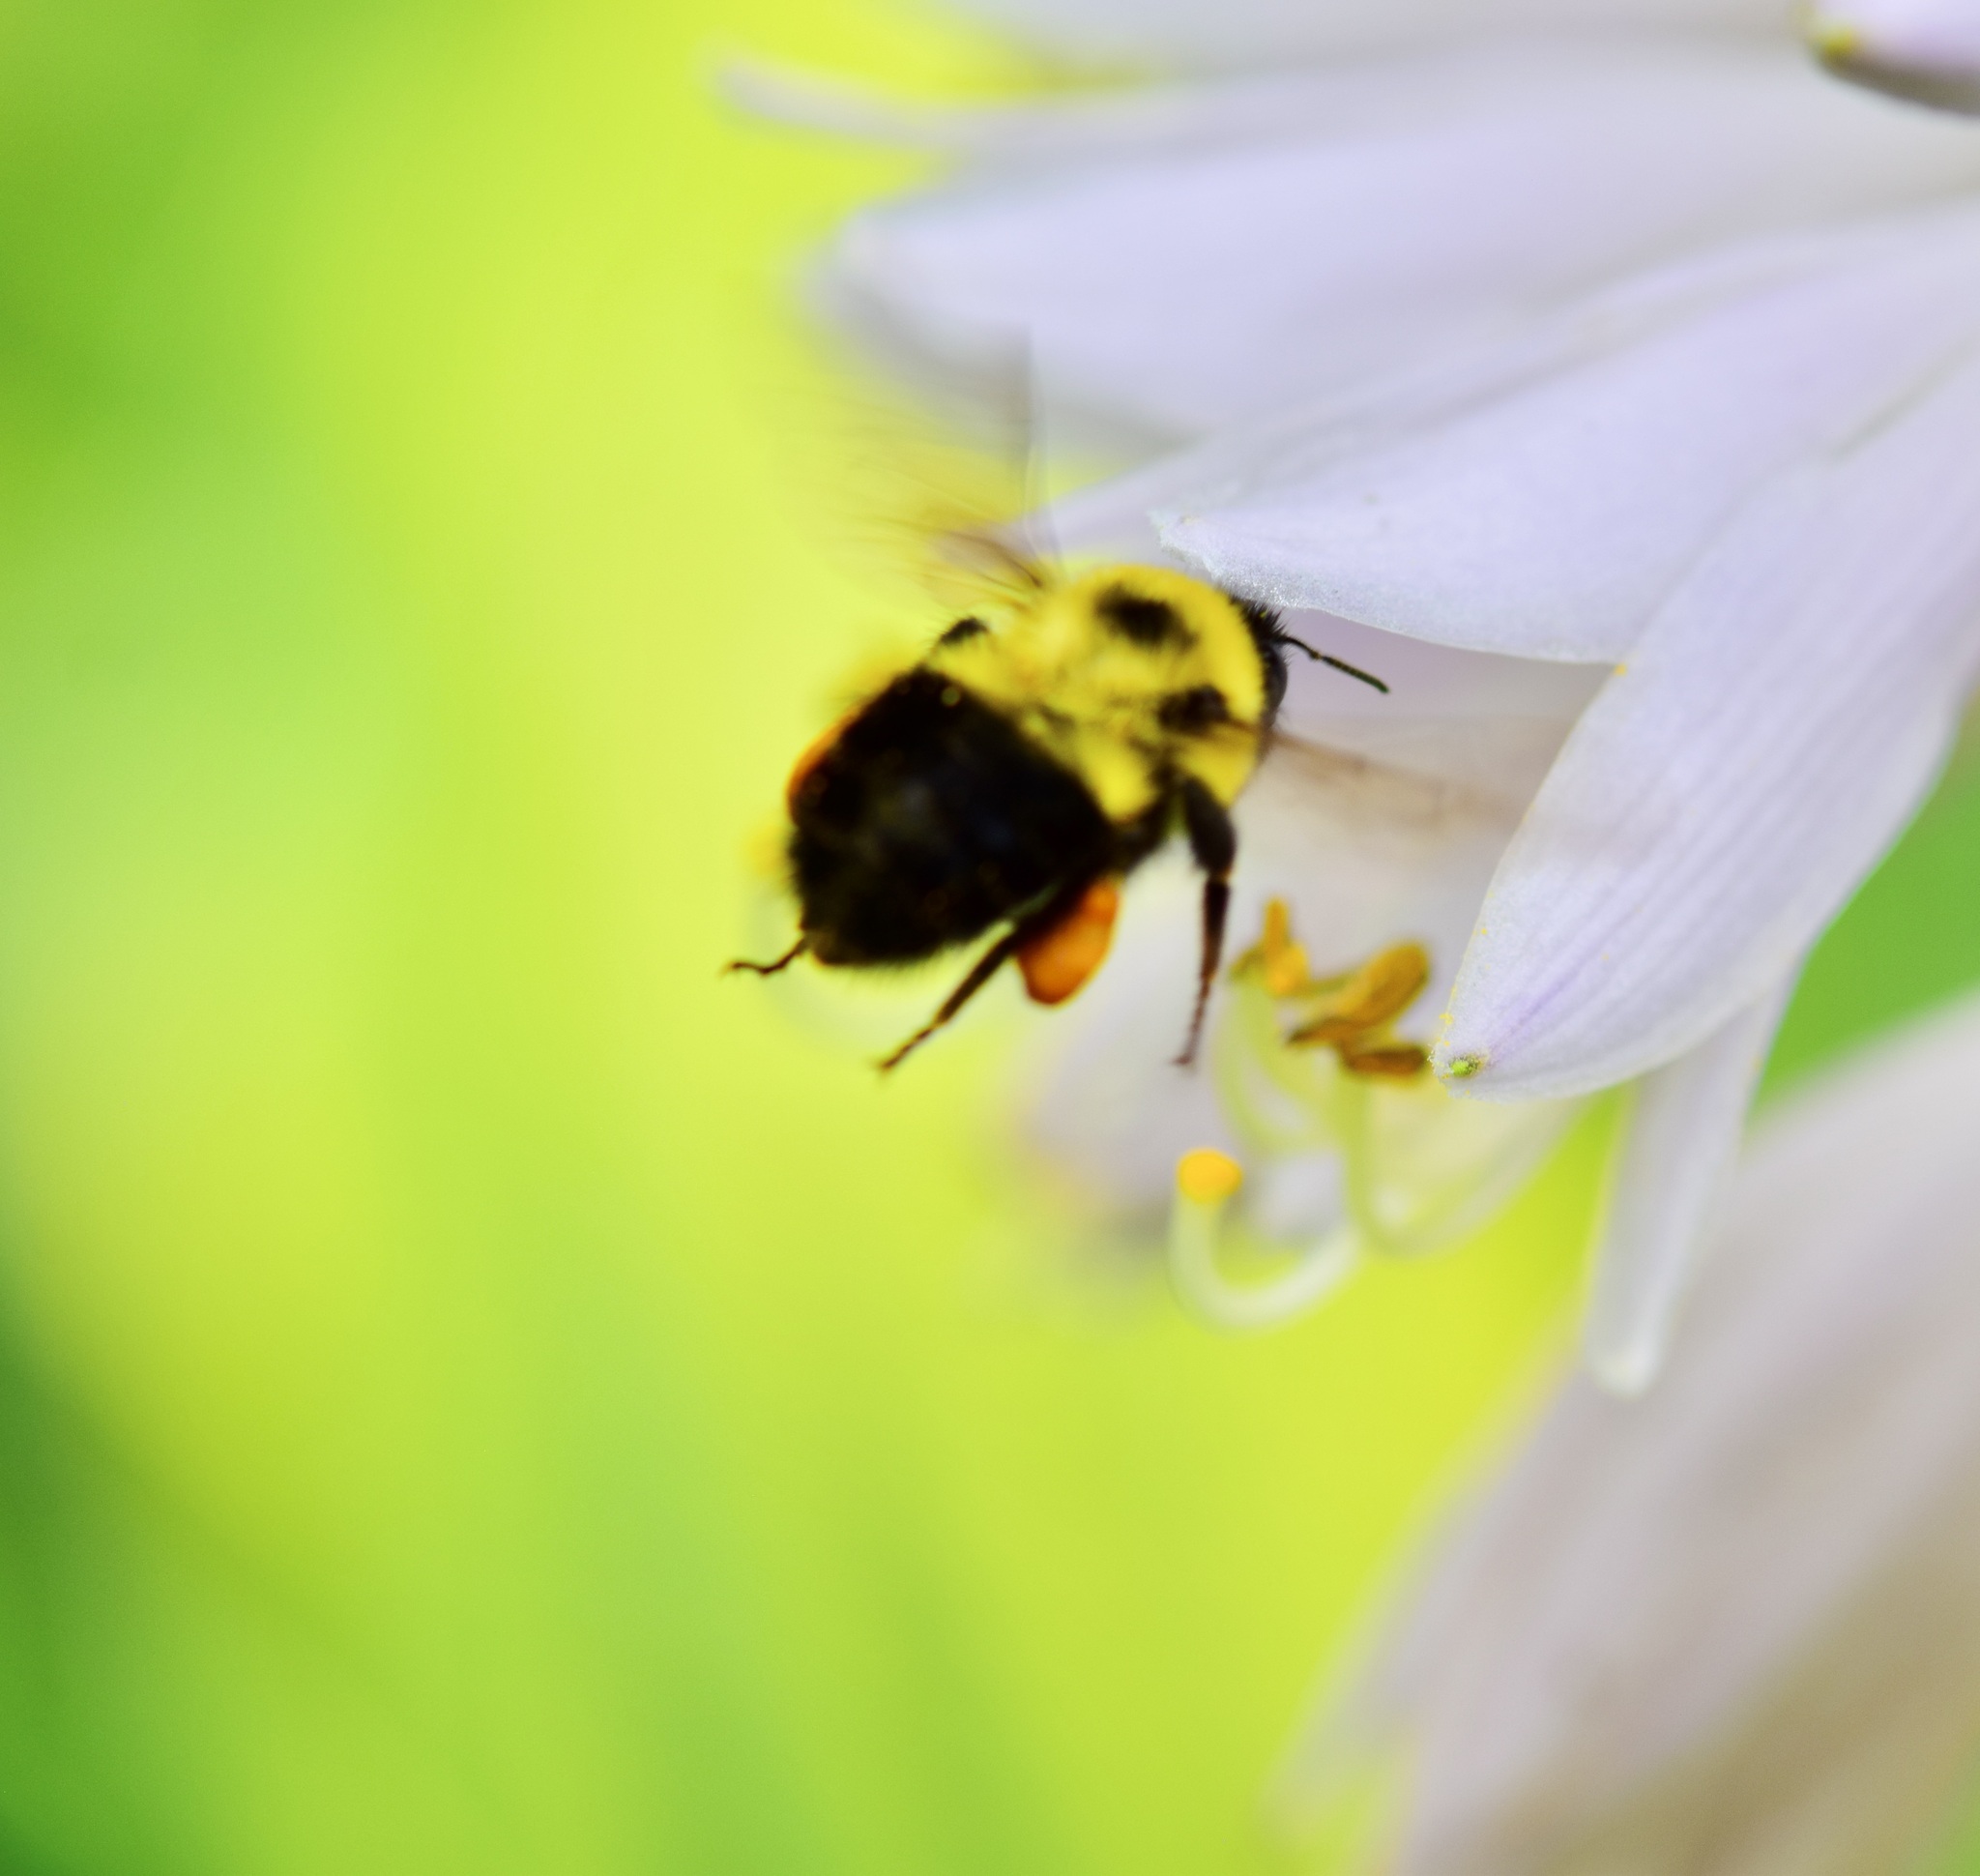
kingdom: Animalia
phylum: Arthropoda
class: Insecta
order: Hymenoptera
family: Apidae
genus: Bombus
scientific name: Bombus bimaculatus
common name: Two-spotted bumble bee
